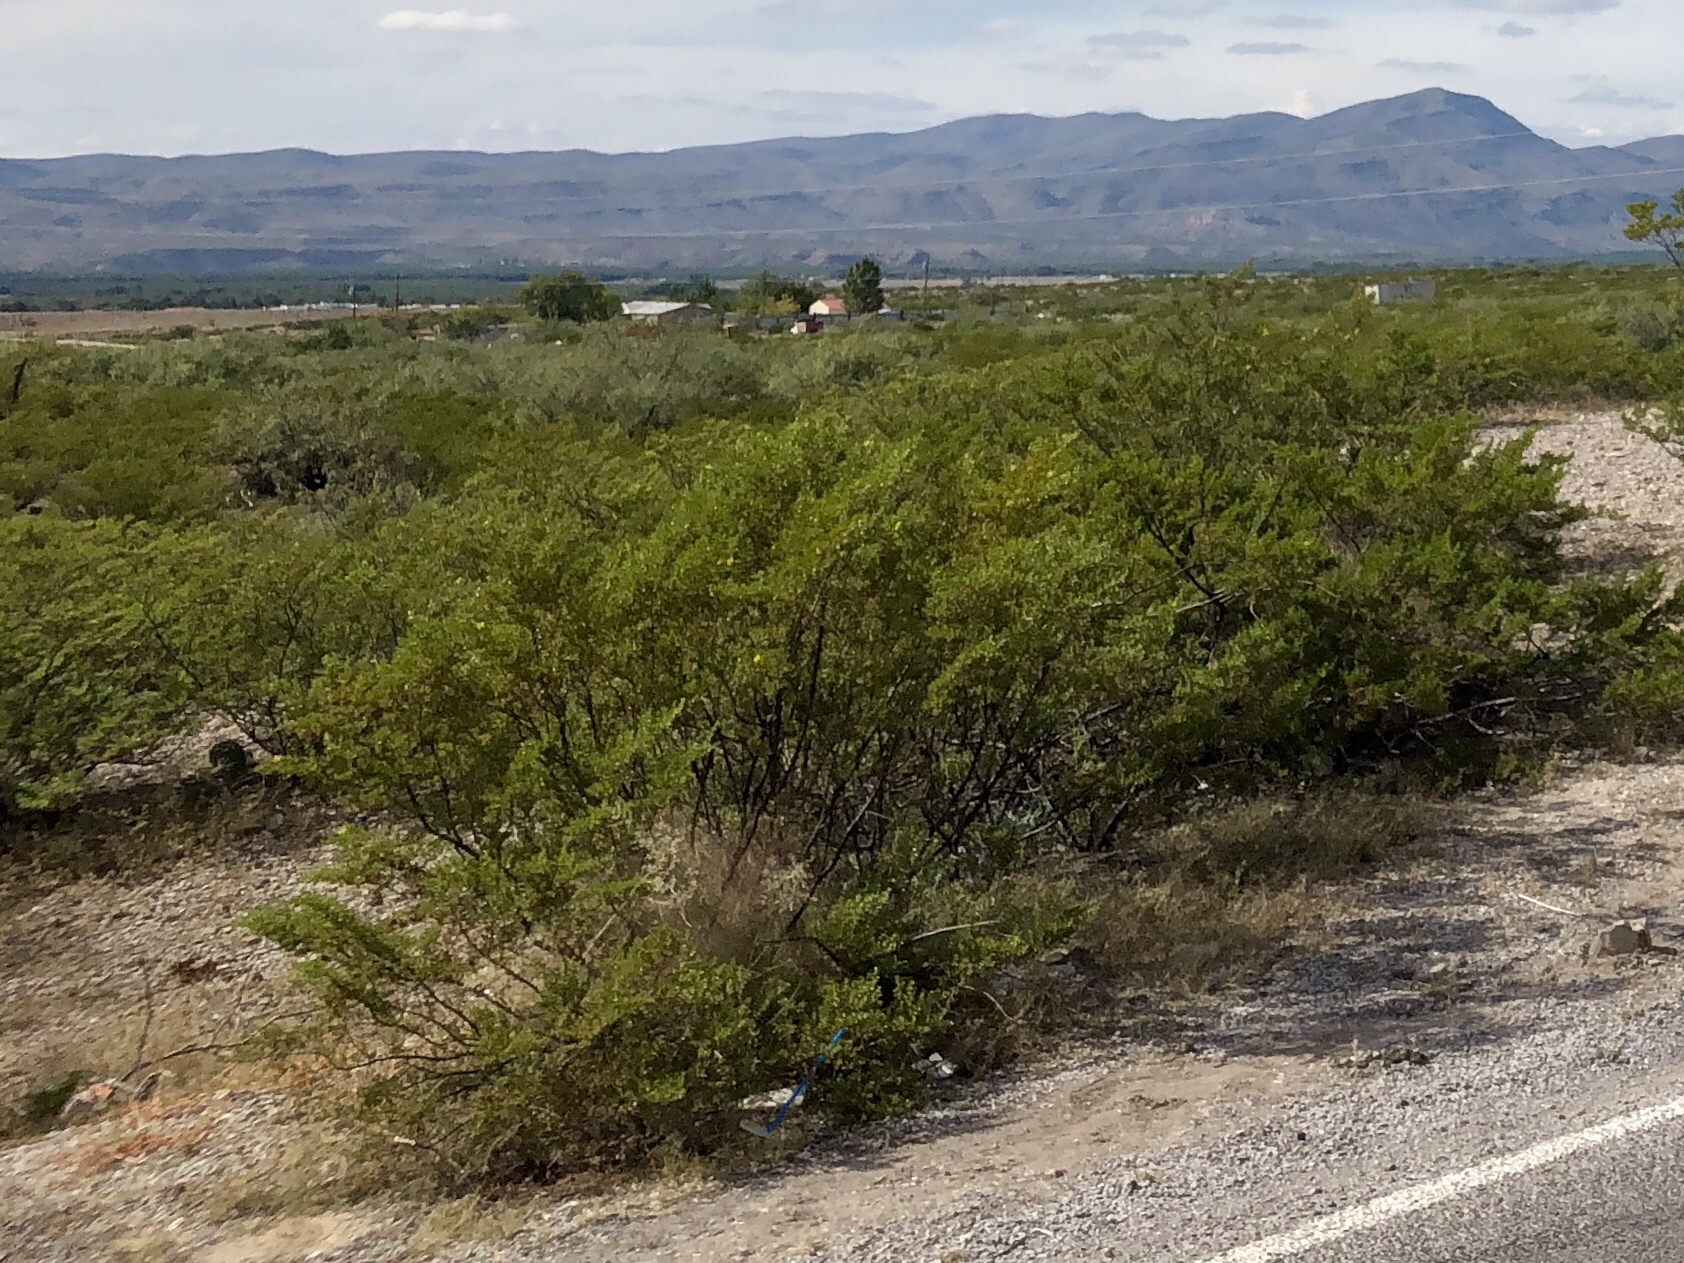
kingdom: Plantae
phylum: Tracheophyta
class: Magnoliopsida
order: Zygophyllales
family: Zygophyllaceae
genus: Larrea
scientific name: Larrea tridentata
